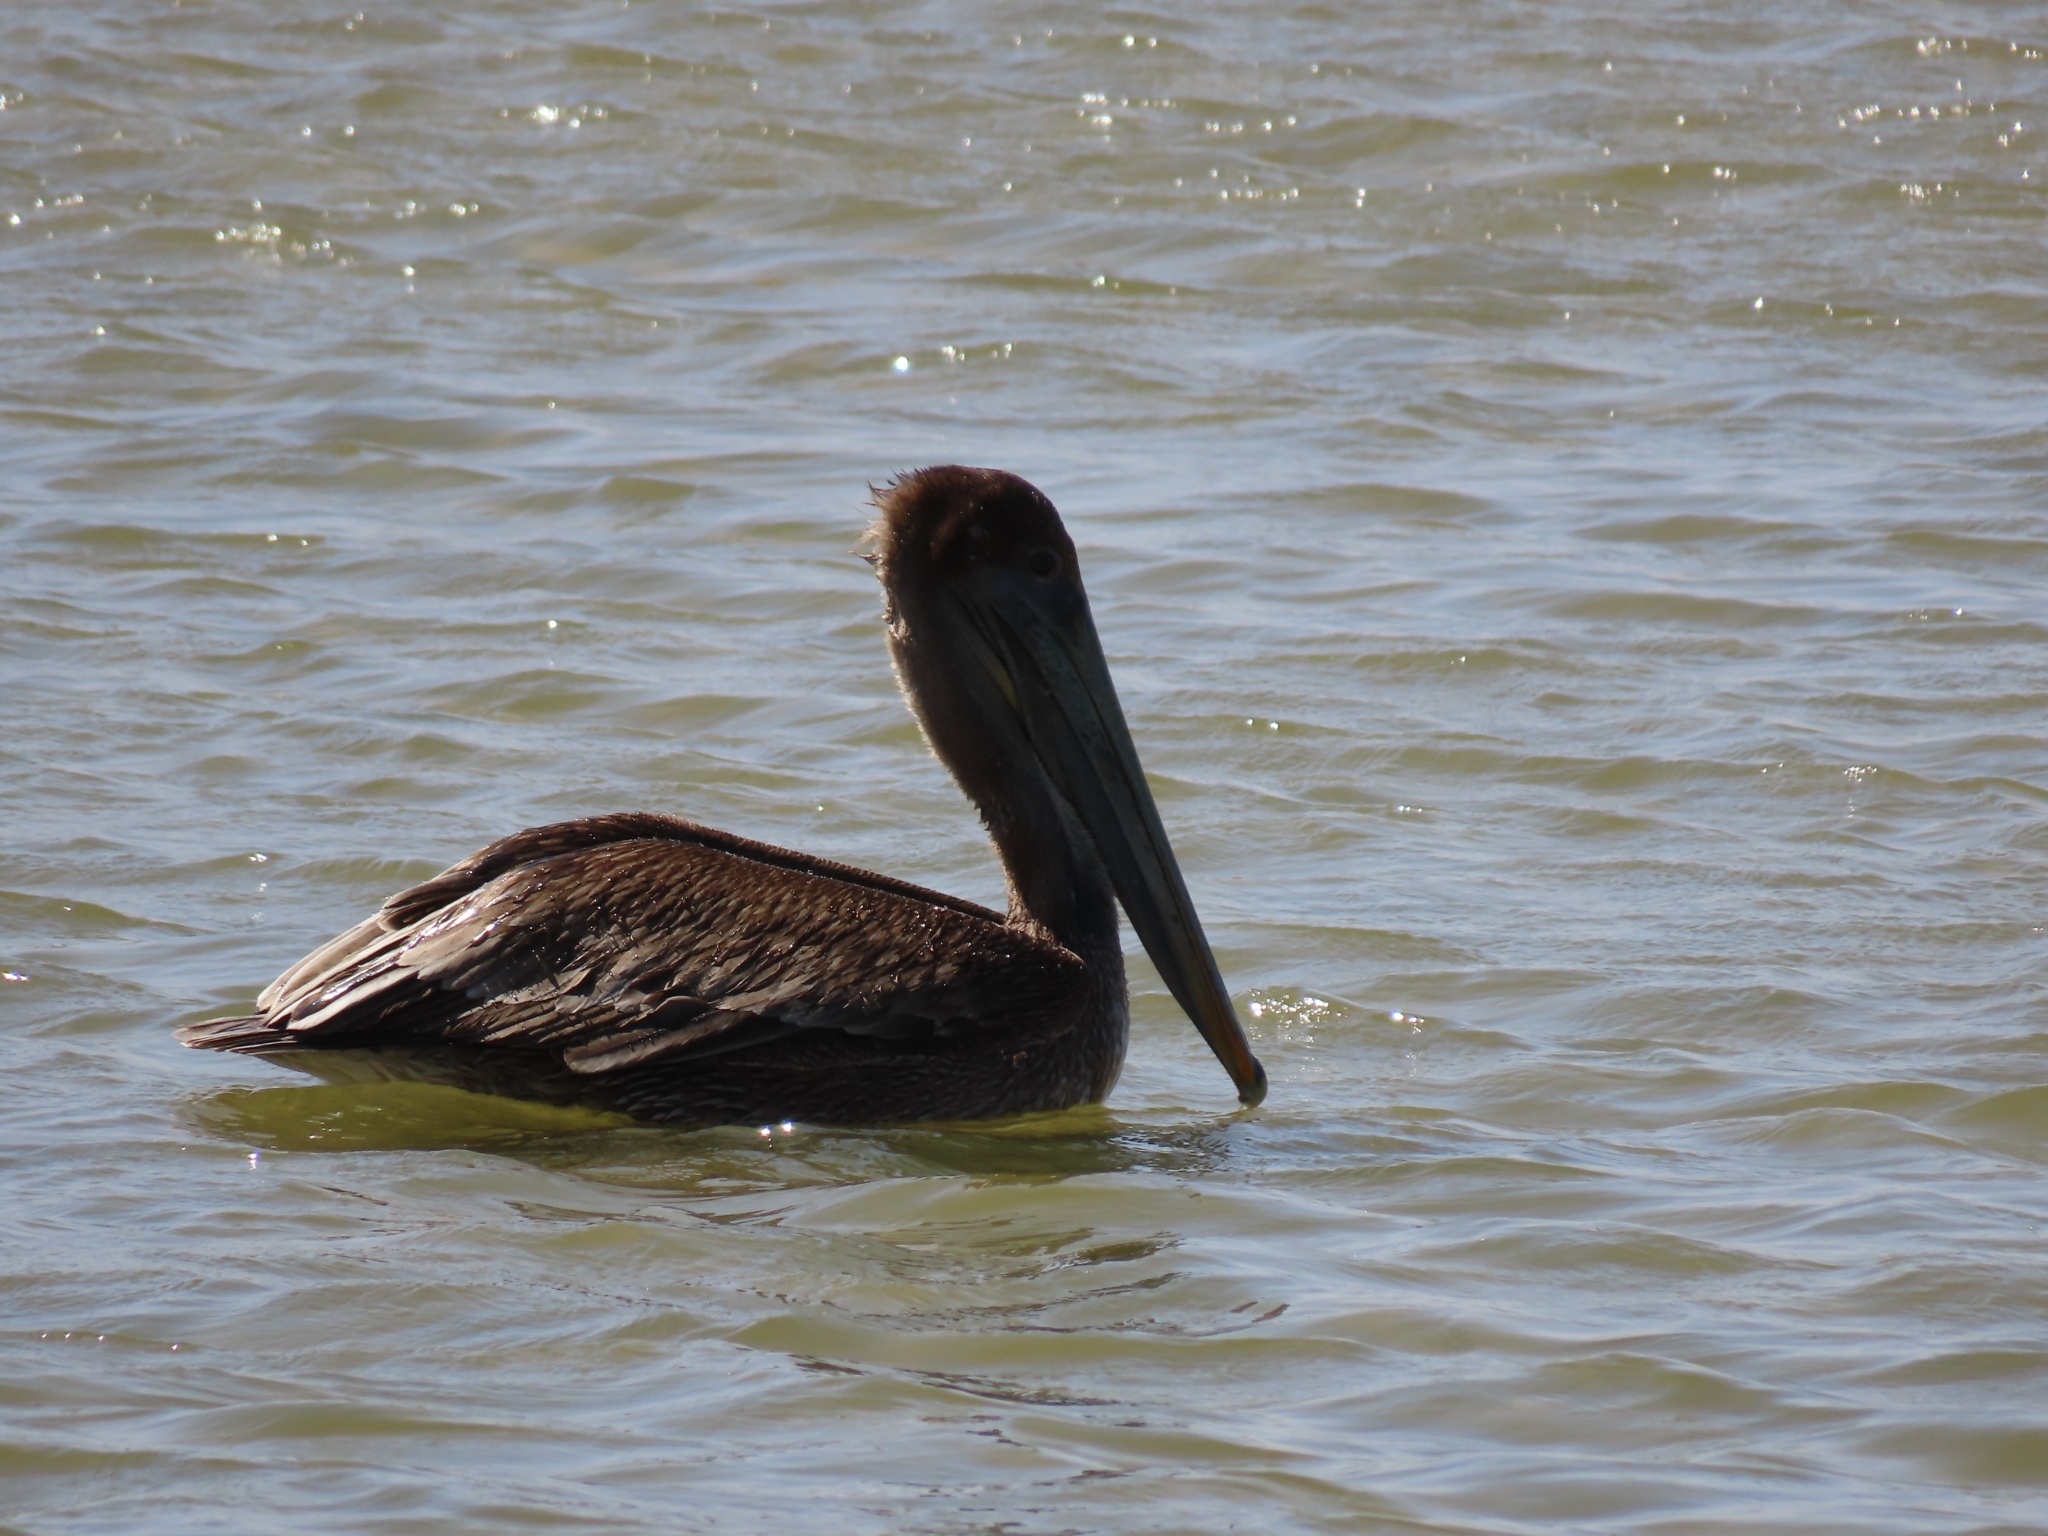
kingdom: Animalia
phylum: Chordata
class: Aves
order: Pelecaniformes
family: Pelecanidae
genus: Pelecanus
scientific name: Pelecanus occidentalis
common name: Brown pelican
